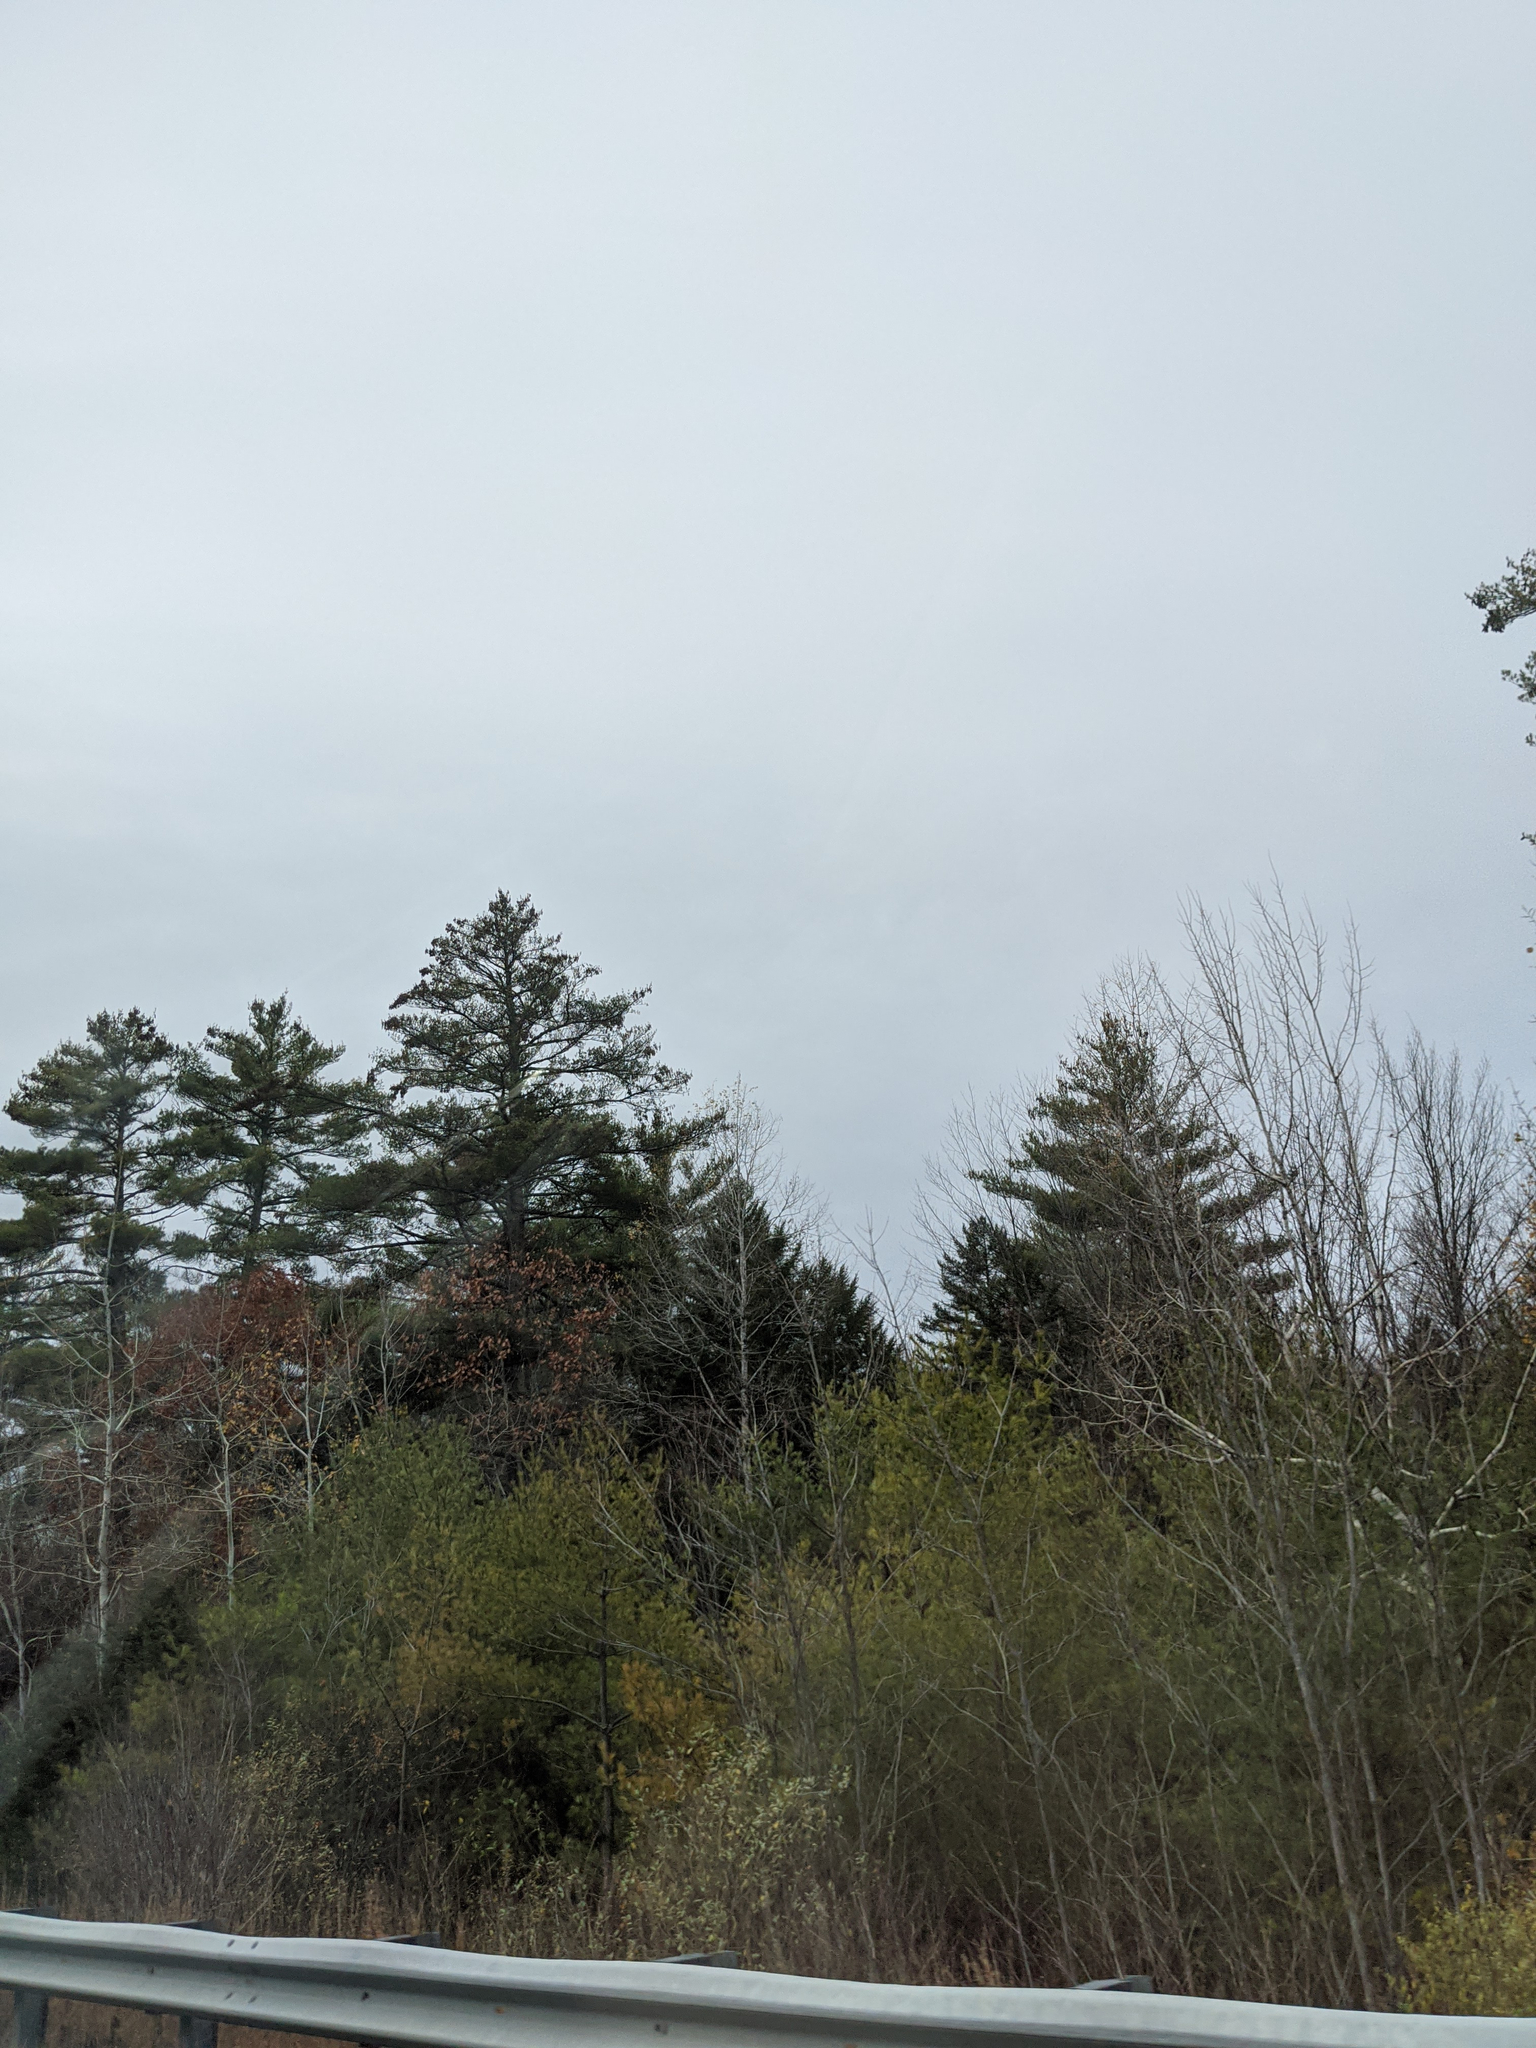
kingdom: Plantae
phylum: Tracheophyta
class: Pinopsida
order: Pinales
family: Pinaceae
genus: Pinus
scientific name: Pinus strobus
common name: Weymouth pine
